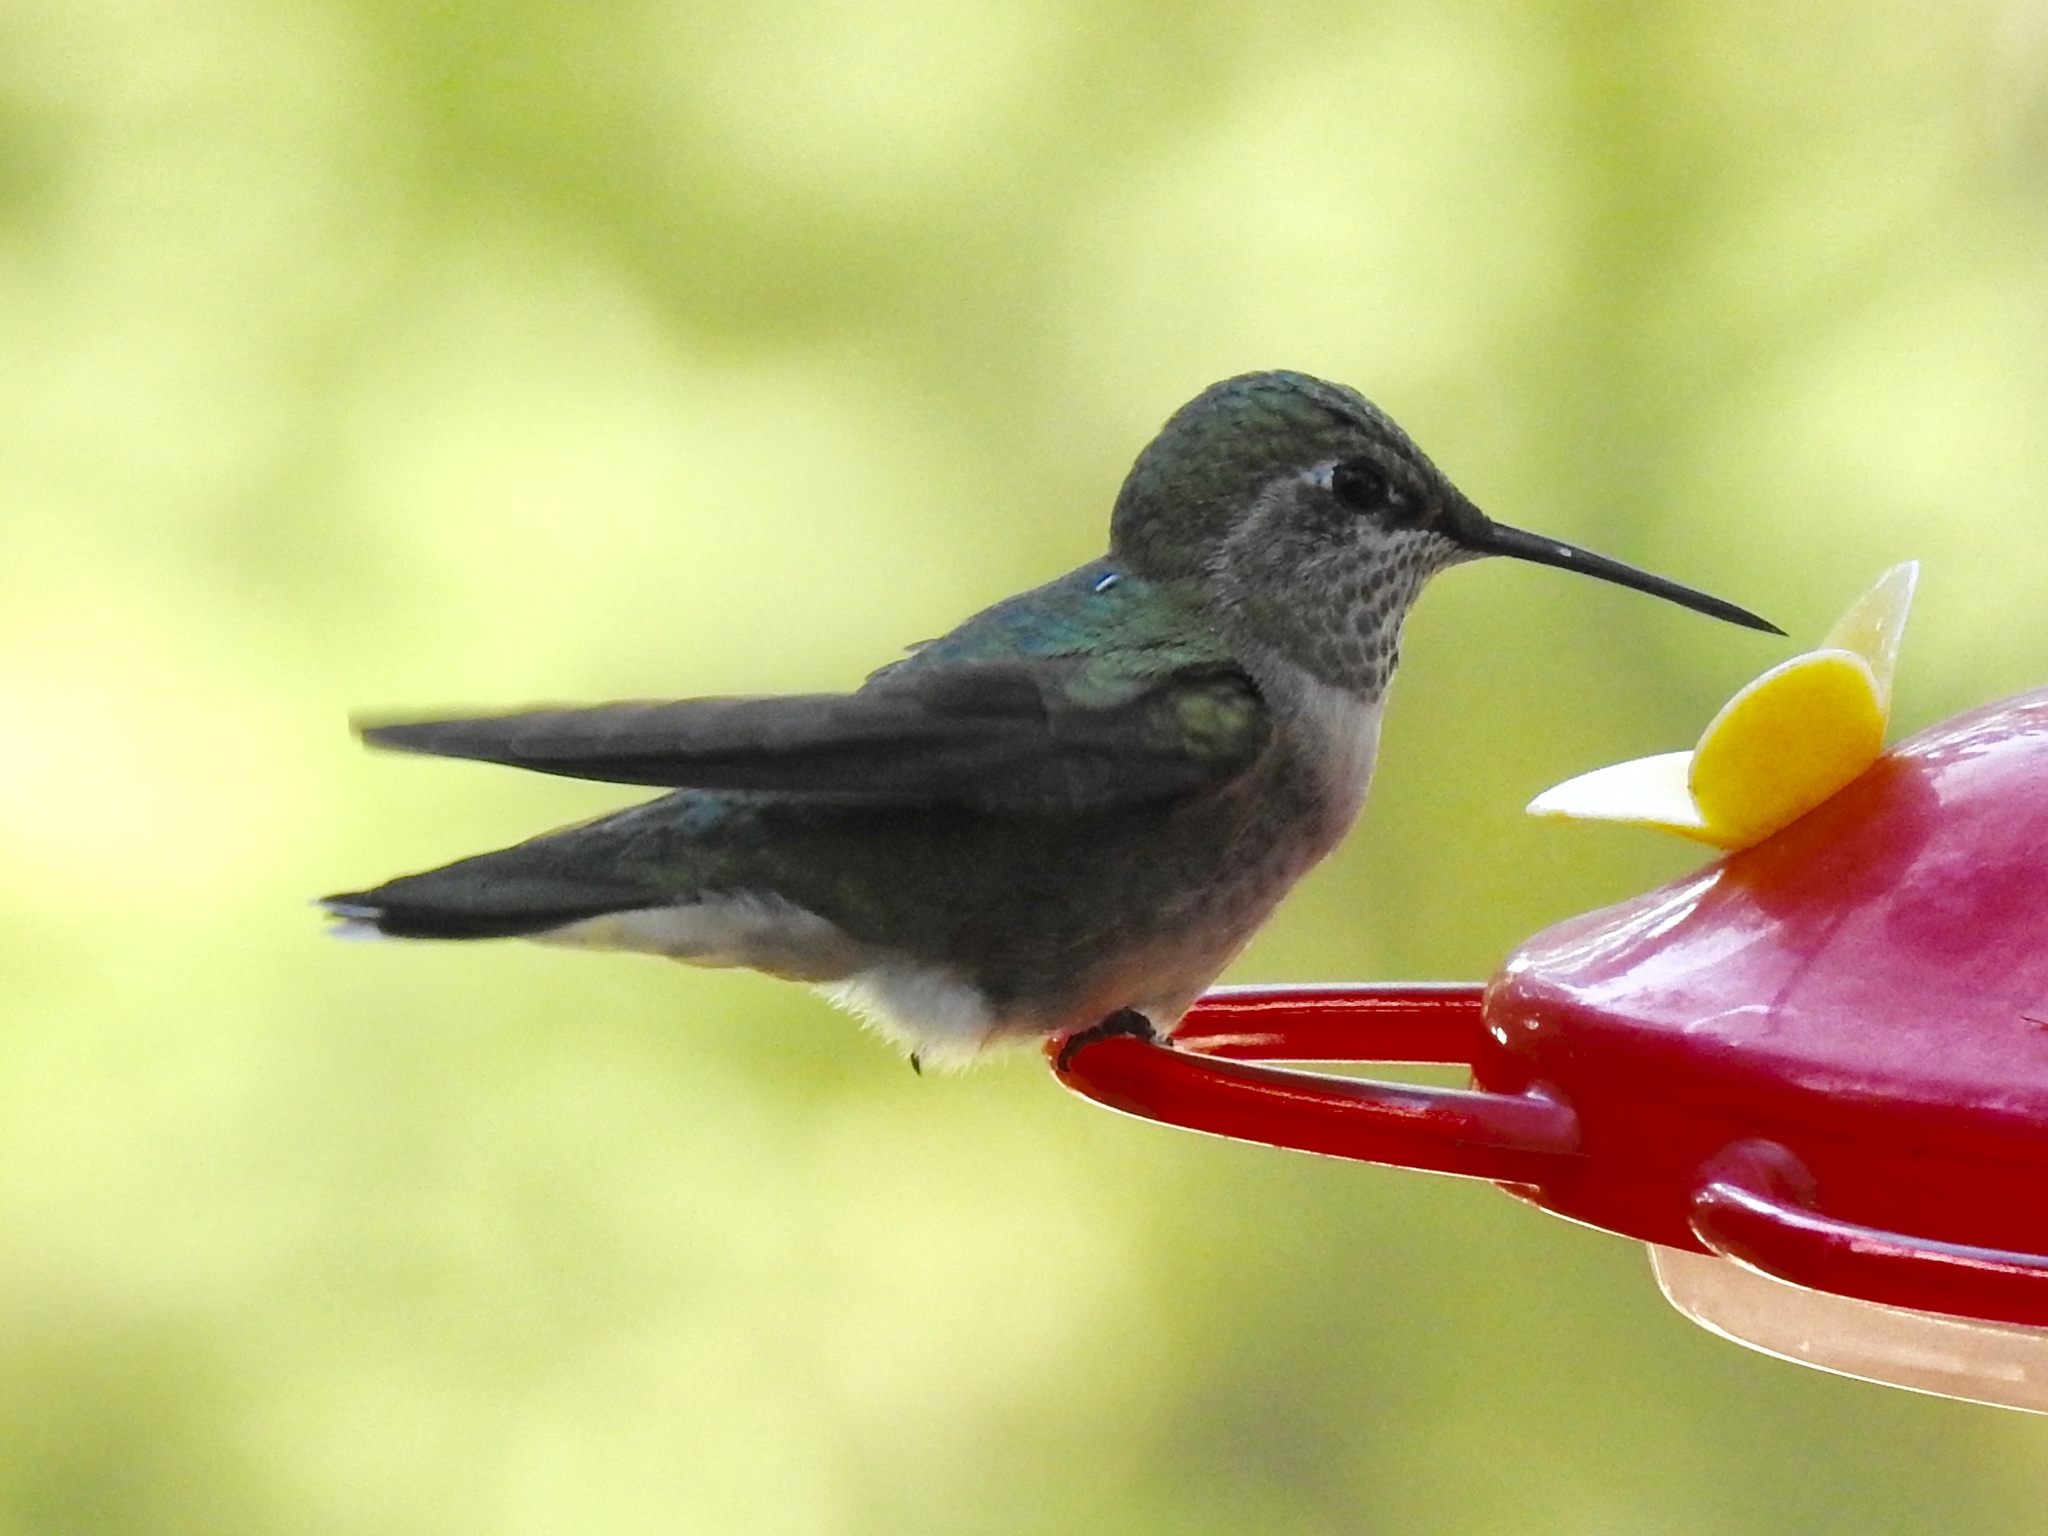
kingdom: Animalia
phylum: Chordata
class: Aves
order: Apodiformes
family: Trochilidae
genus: Selasphorus
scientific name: Selasphorus platycercus
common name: Broad-tailed hummingbird
